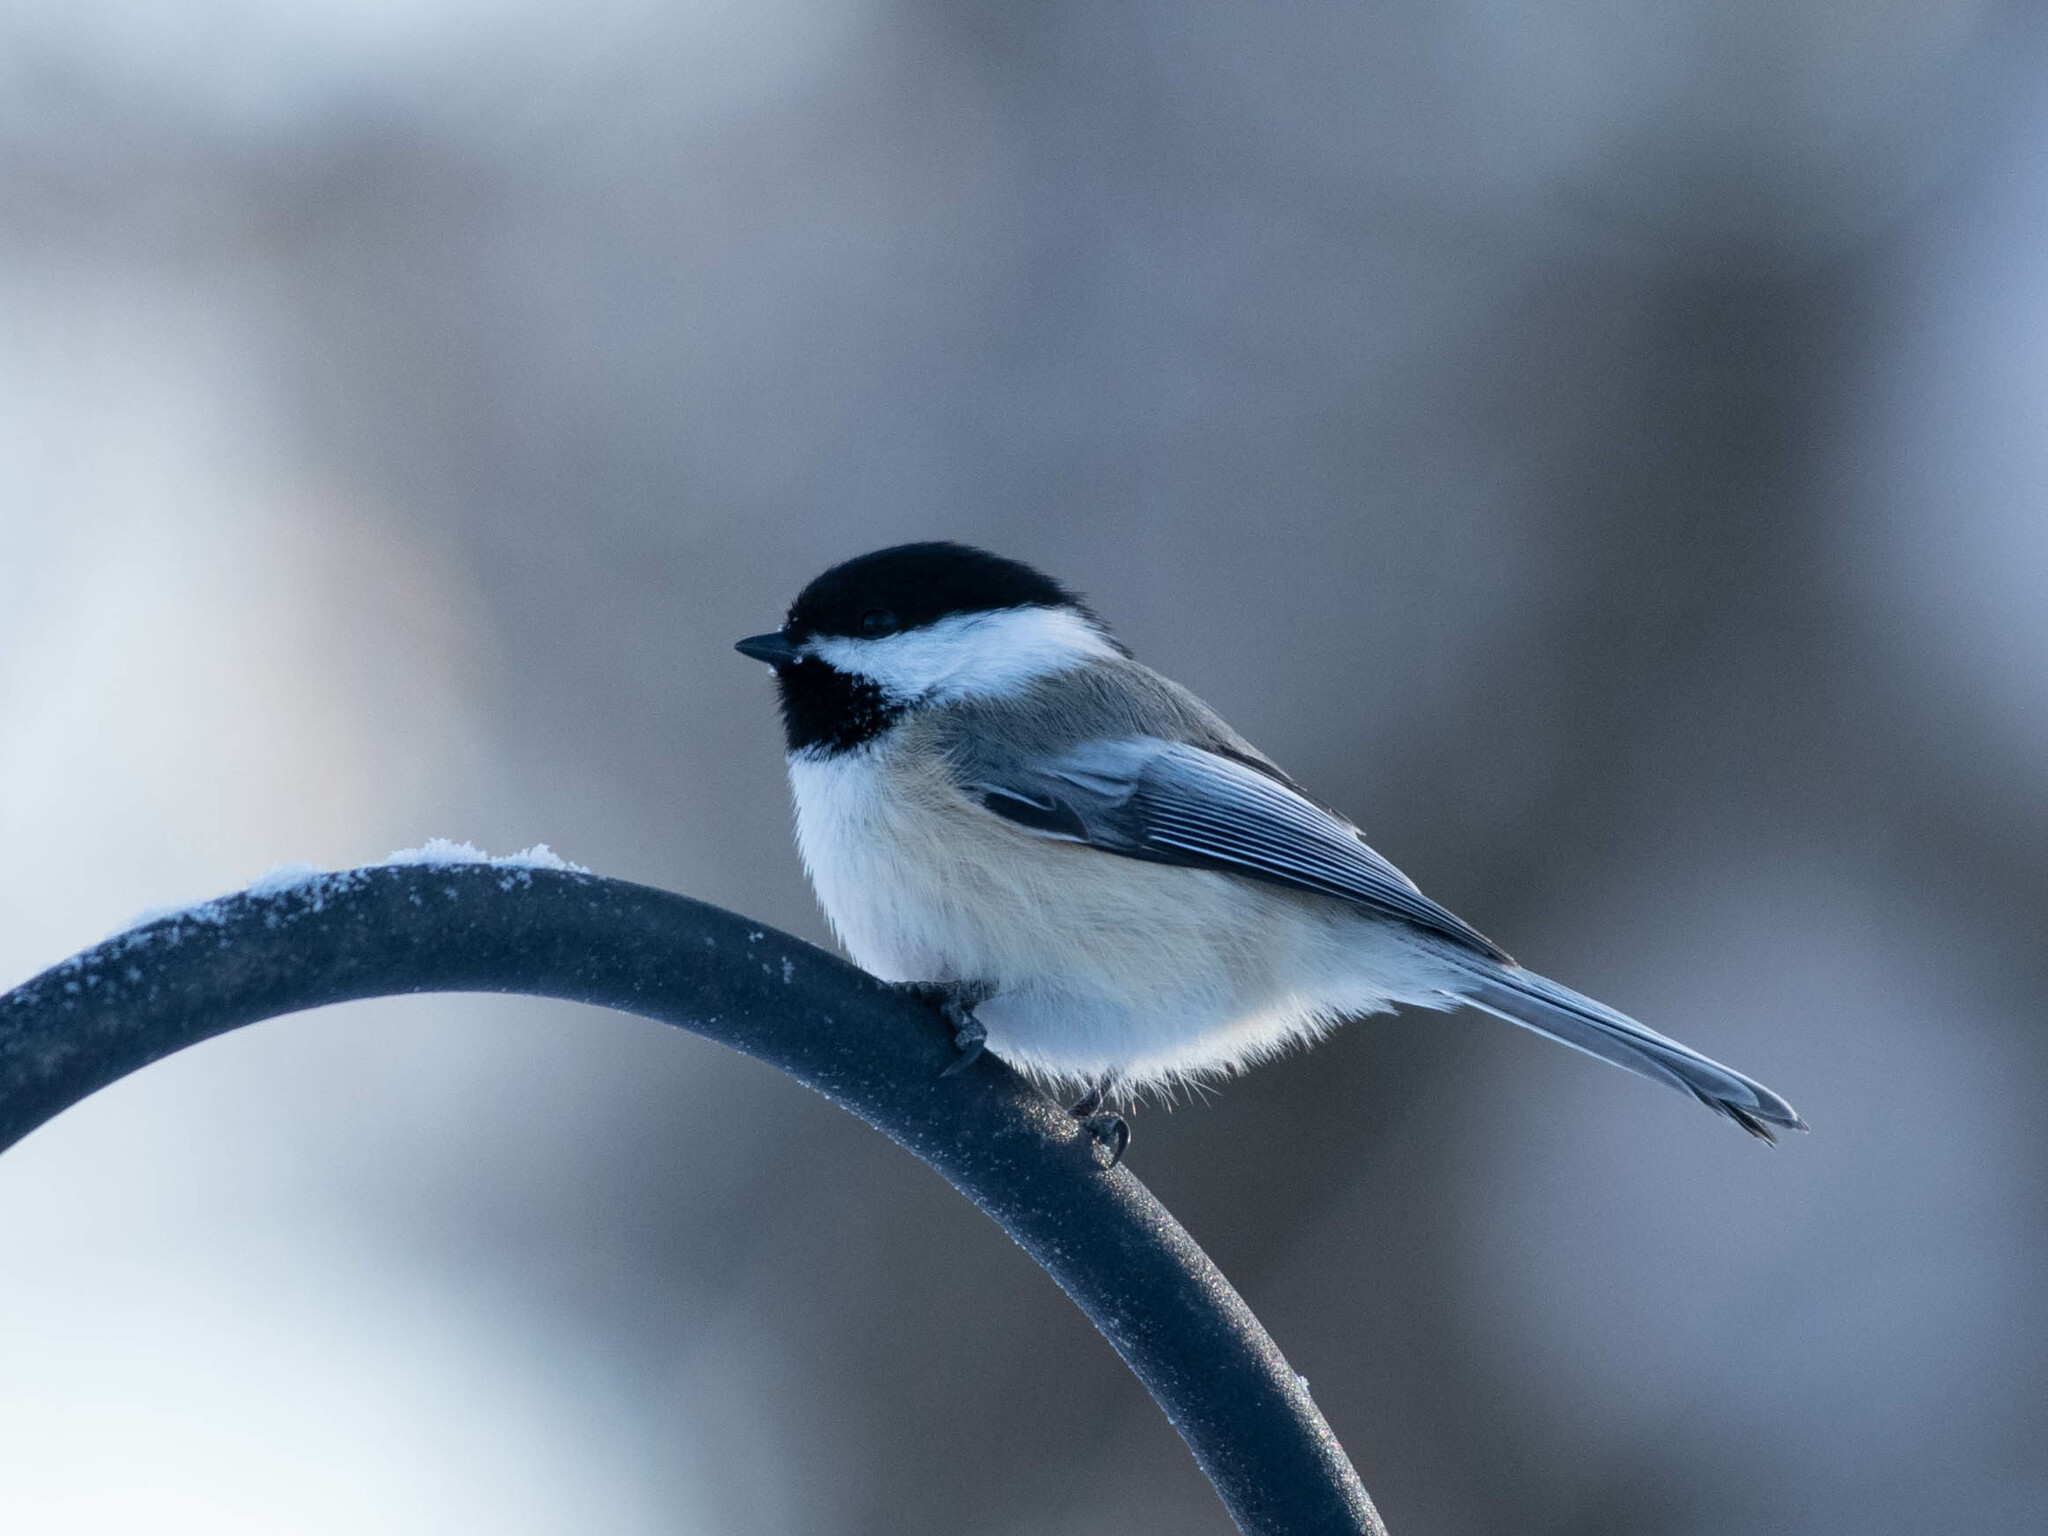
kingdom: Animalia
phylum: Chordata
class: Aves
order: Passeriformes
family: Paridae
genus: Poecile
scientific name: Poecile atricapillus
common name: Black-capped chickadee
